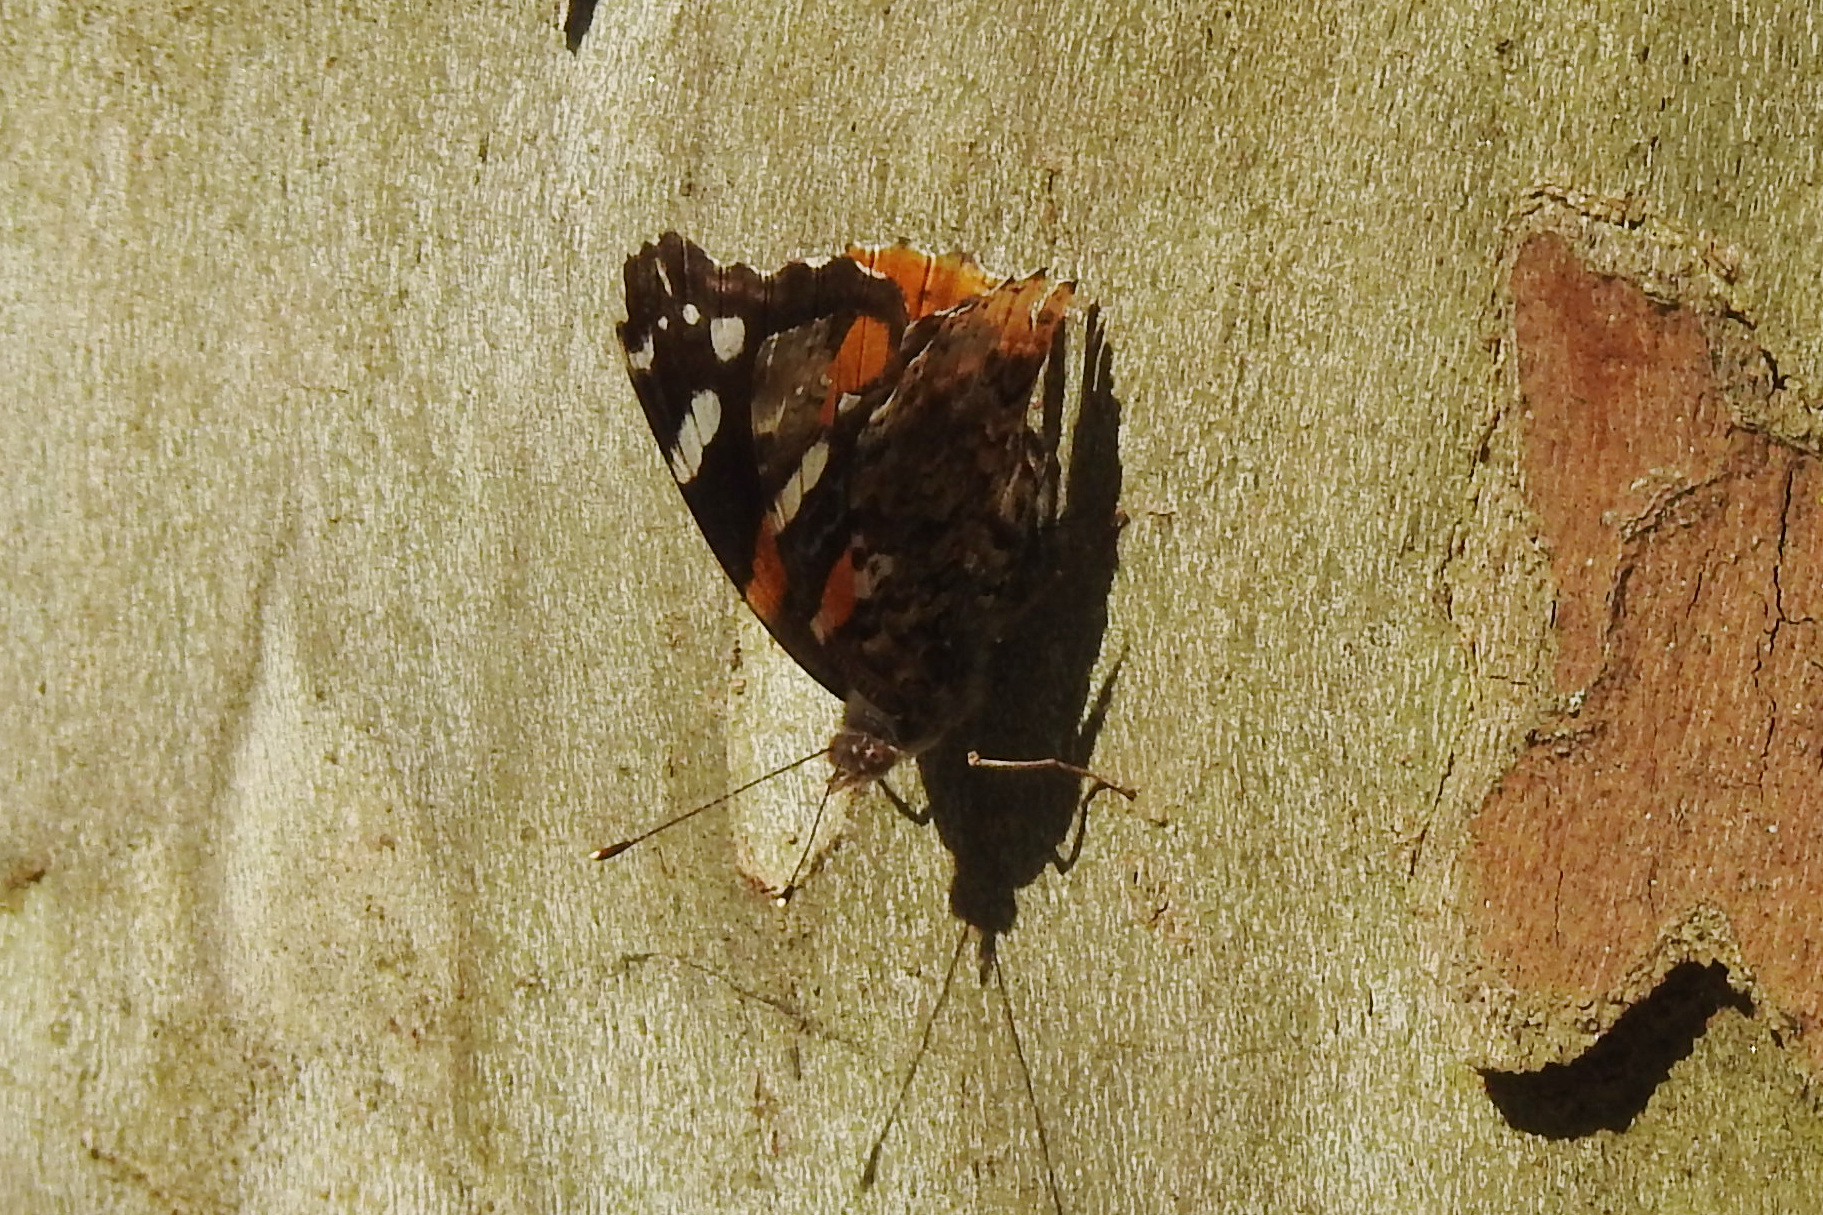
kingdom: Animalia
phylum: Arthropoda
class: Insecta
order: Lepidoptera
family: Nymphalidae
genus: Vanessa
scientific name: Vanessa atalanta
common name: Red admiral
